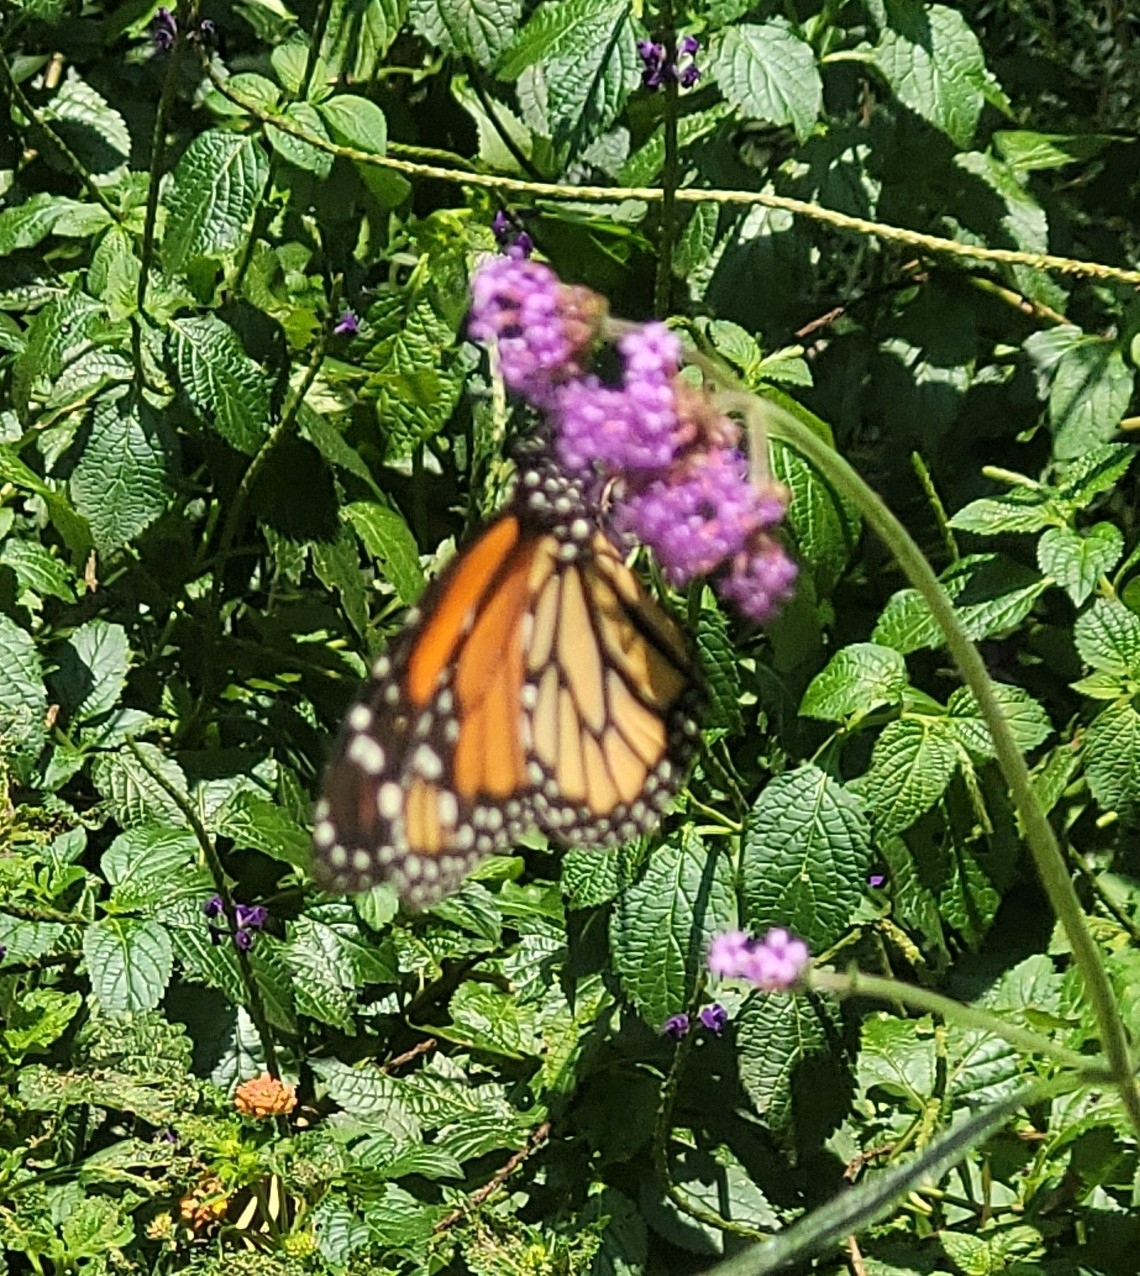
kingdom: Animalia
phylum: Arthropoda
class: Insecta
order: Lepidoptera
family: Nymphalidae
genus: Danaus
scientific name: Danaus plexippus
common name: Monarch
